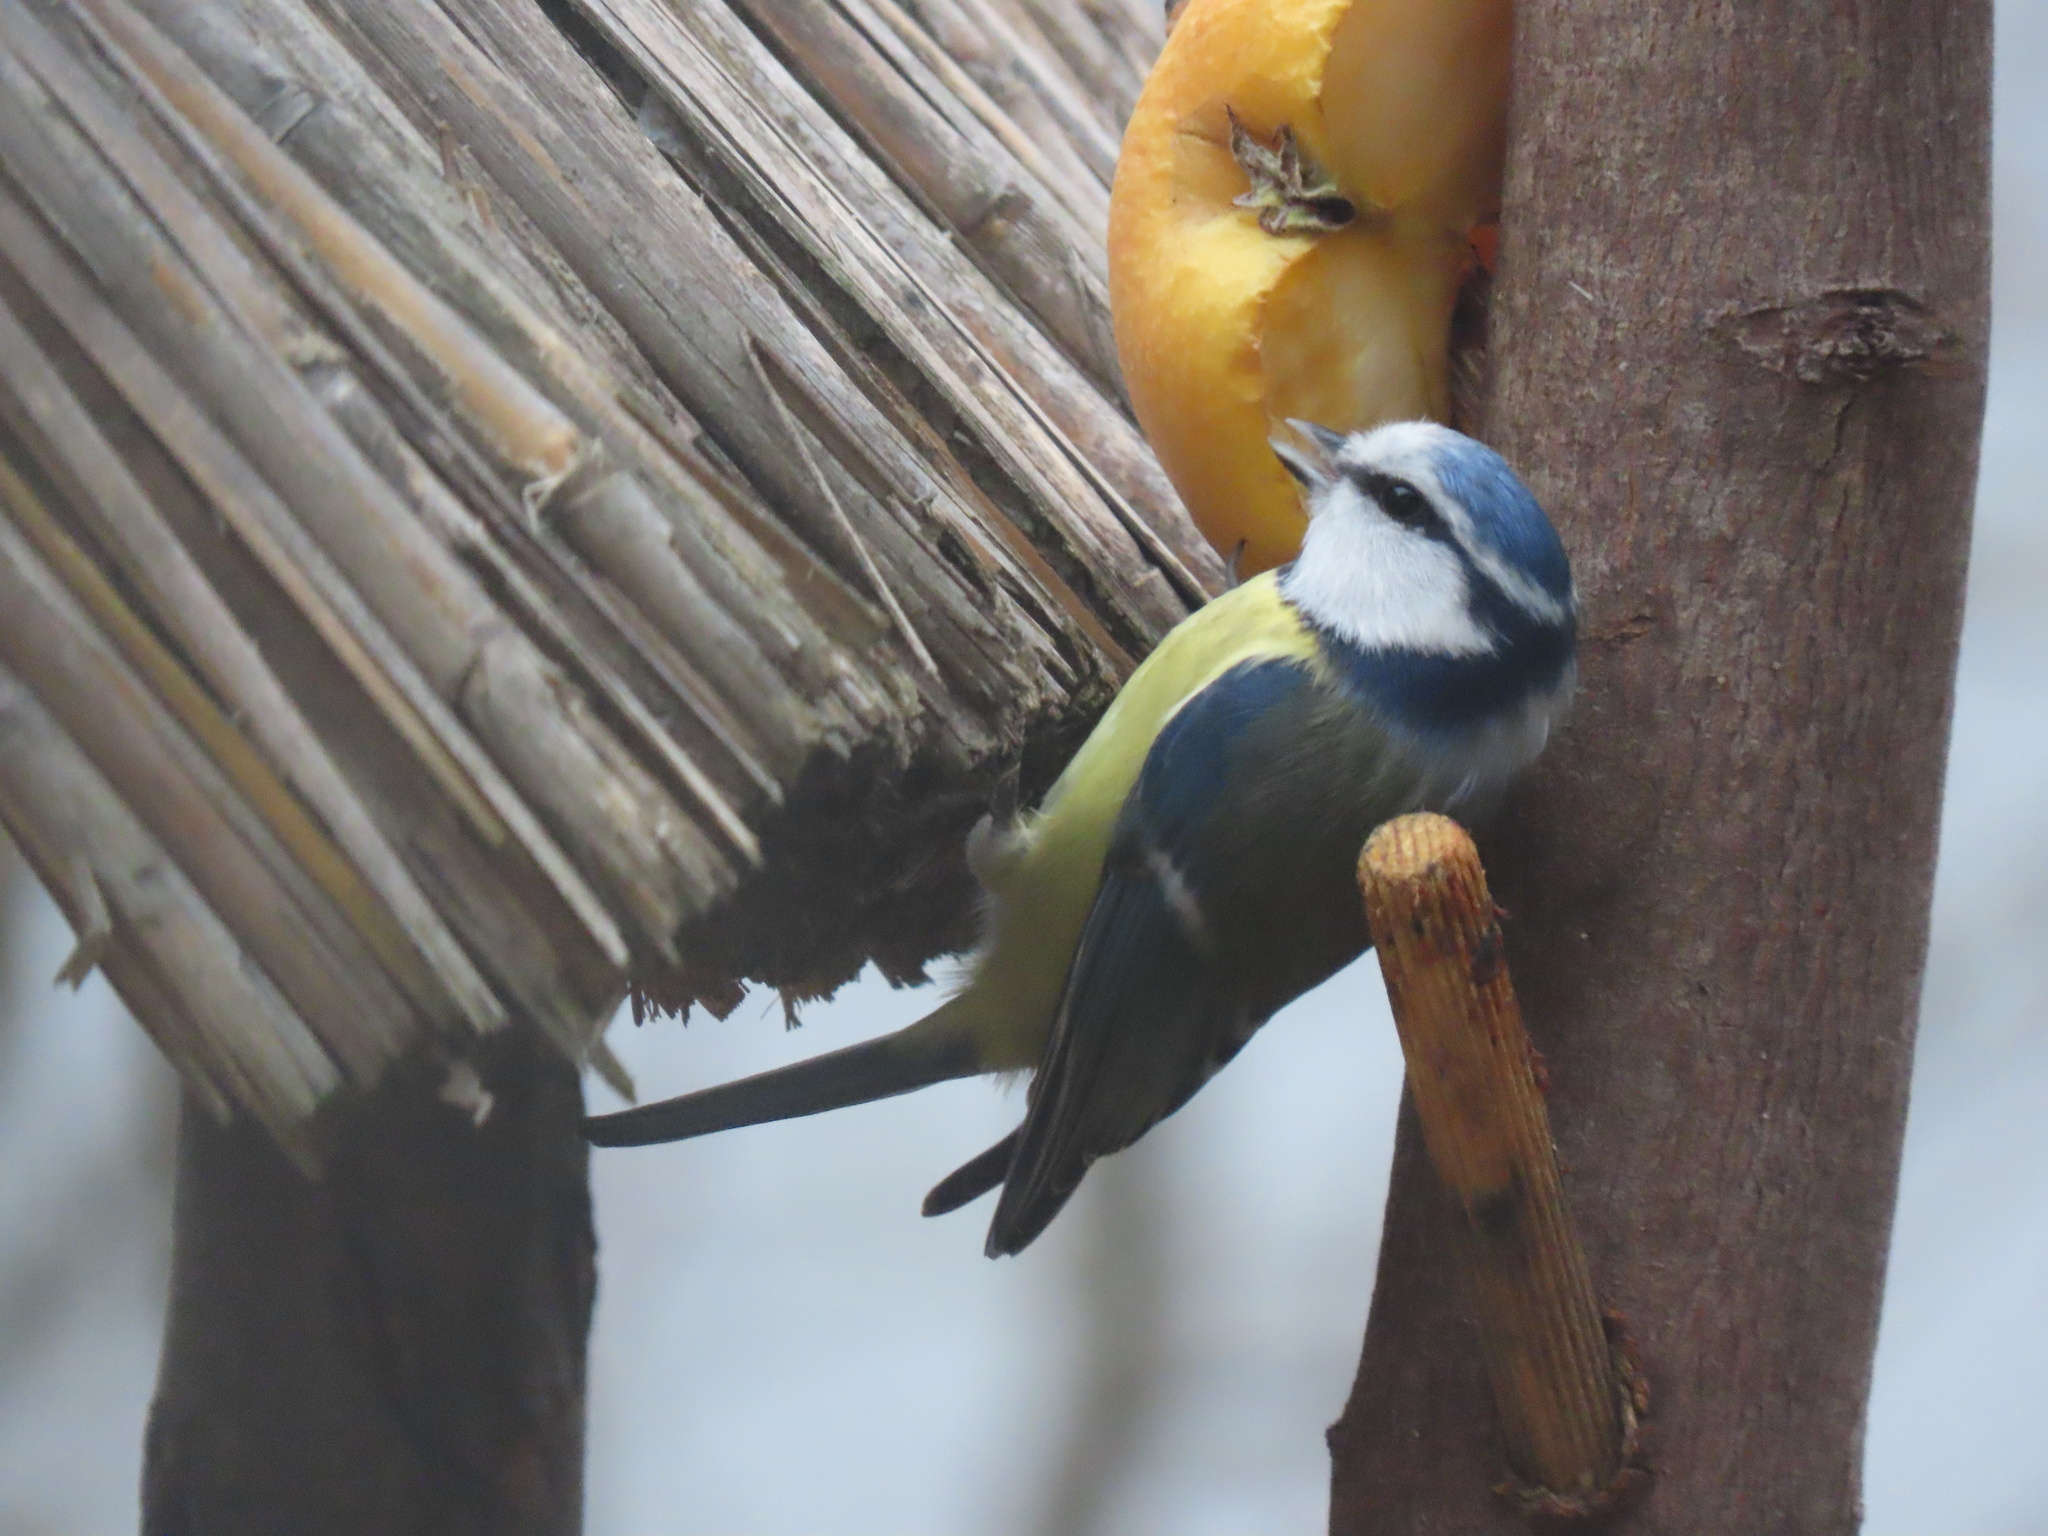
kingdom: Animalia
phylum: Chordata
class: Aves
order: Passeriformes
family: Paridae
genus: Cyanistes
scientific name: Cyanistes caeruleus
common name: Eurasian blue tit
